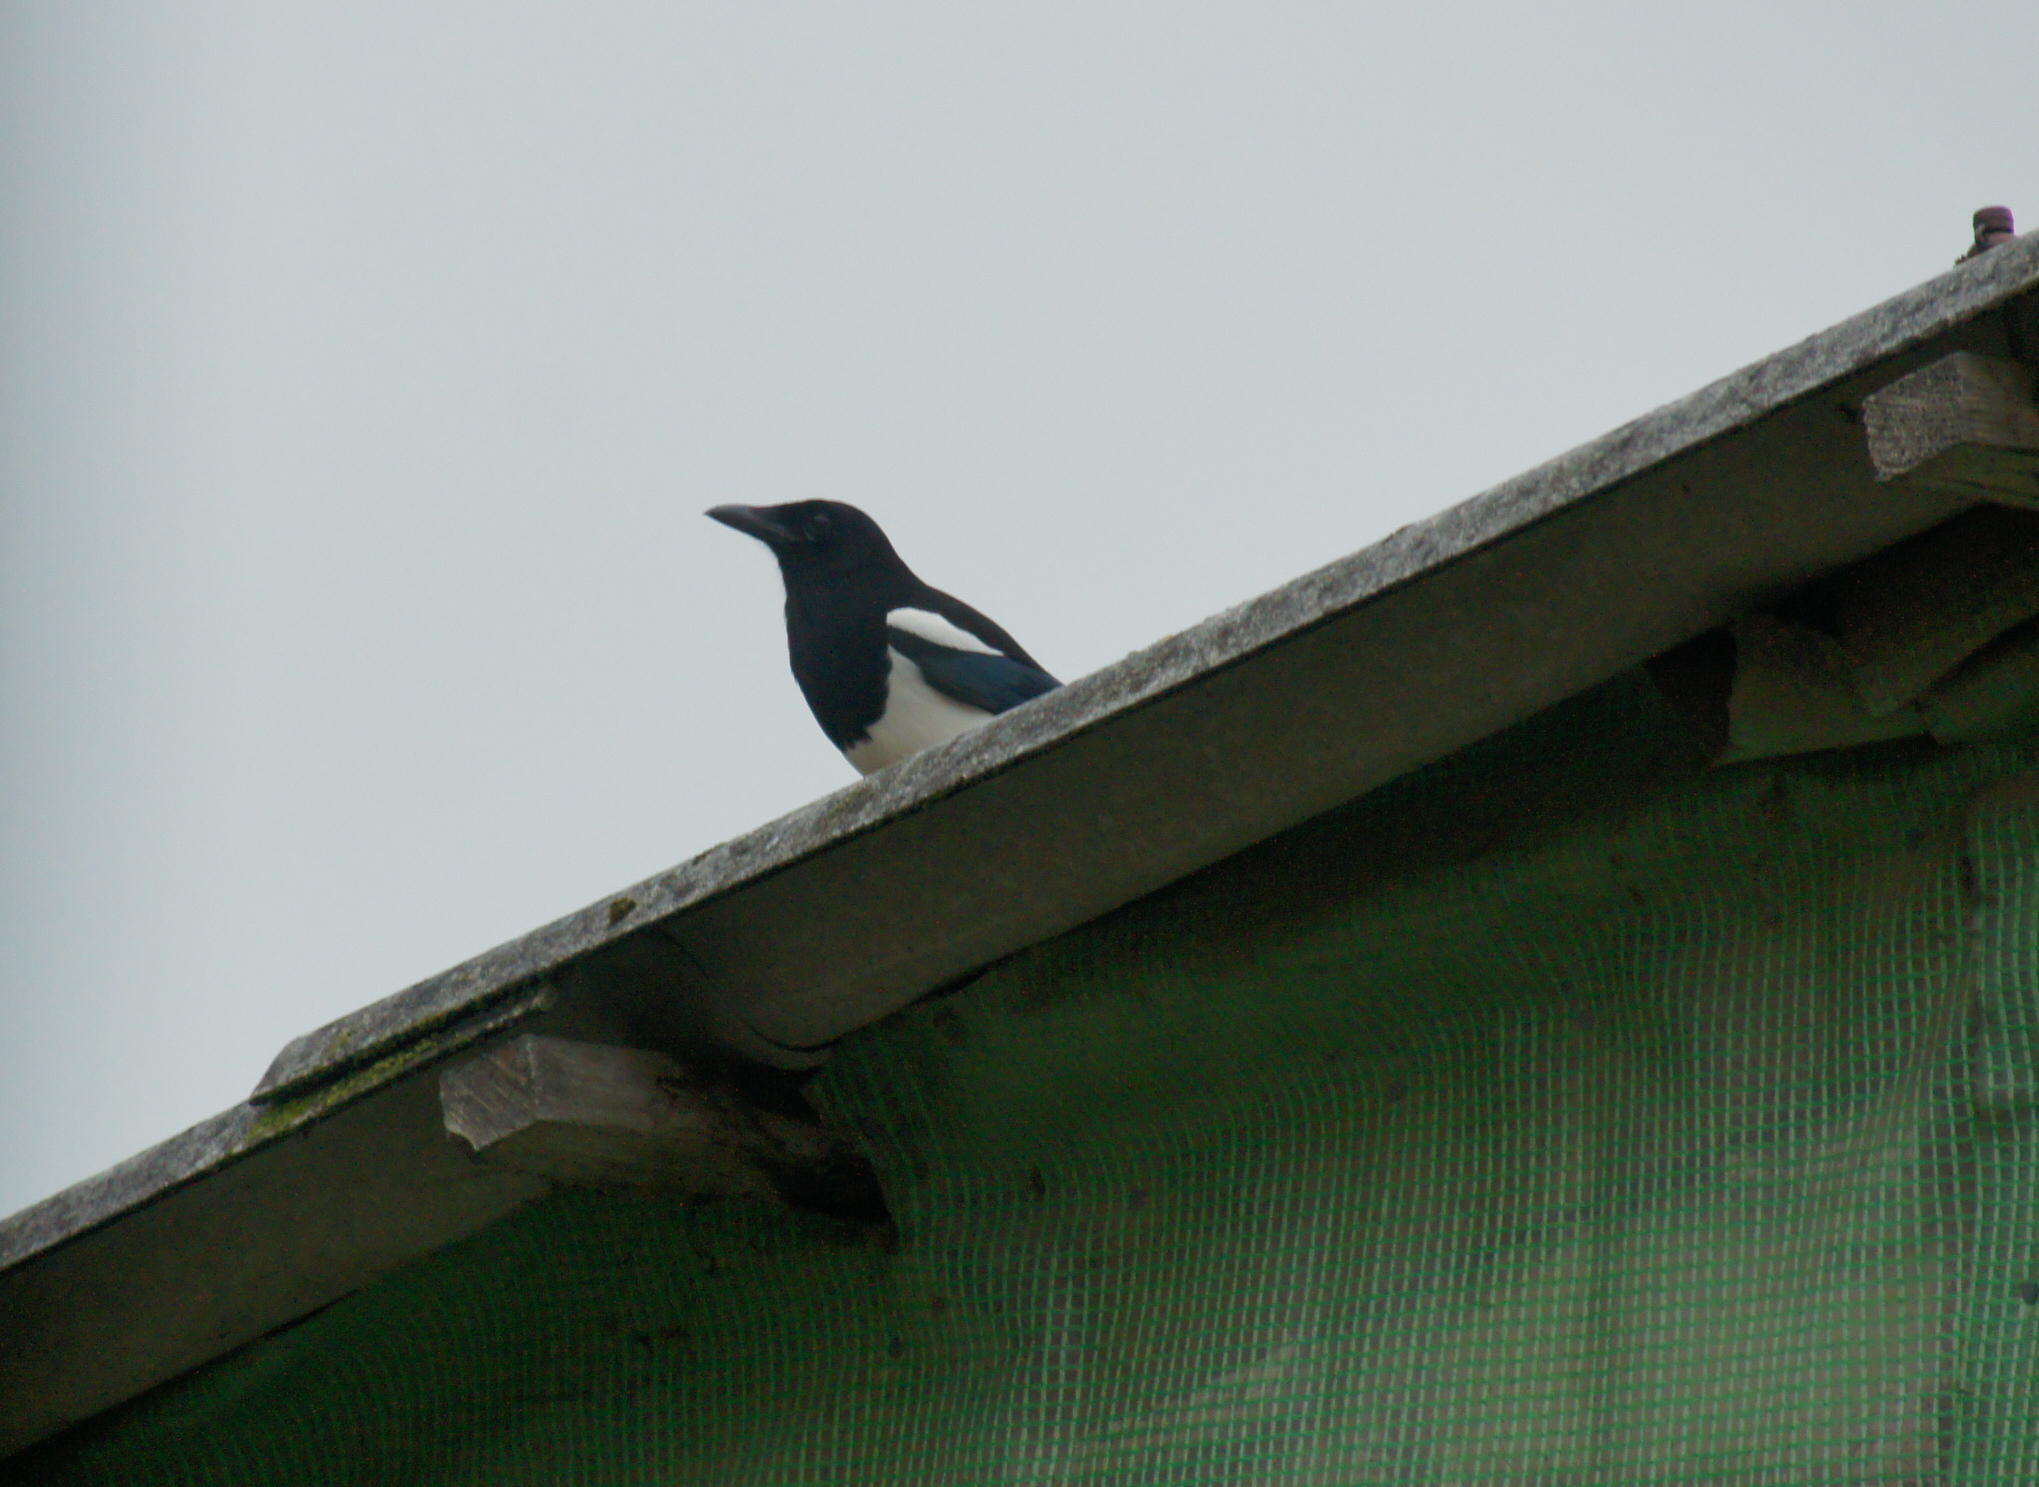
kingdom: Animalia
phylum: Chordata
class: Aves
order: Passeriformes
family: Corvidae
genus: Pica
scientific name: Pica pica
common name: Eurasian magpie
